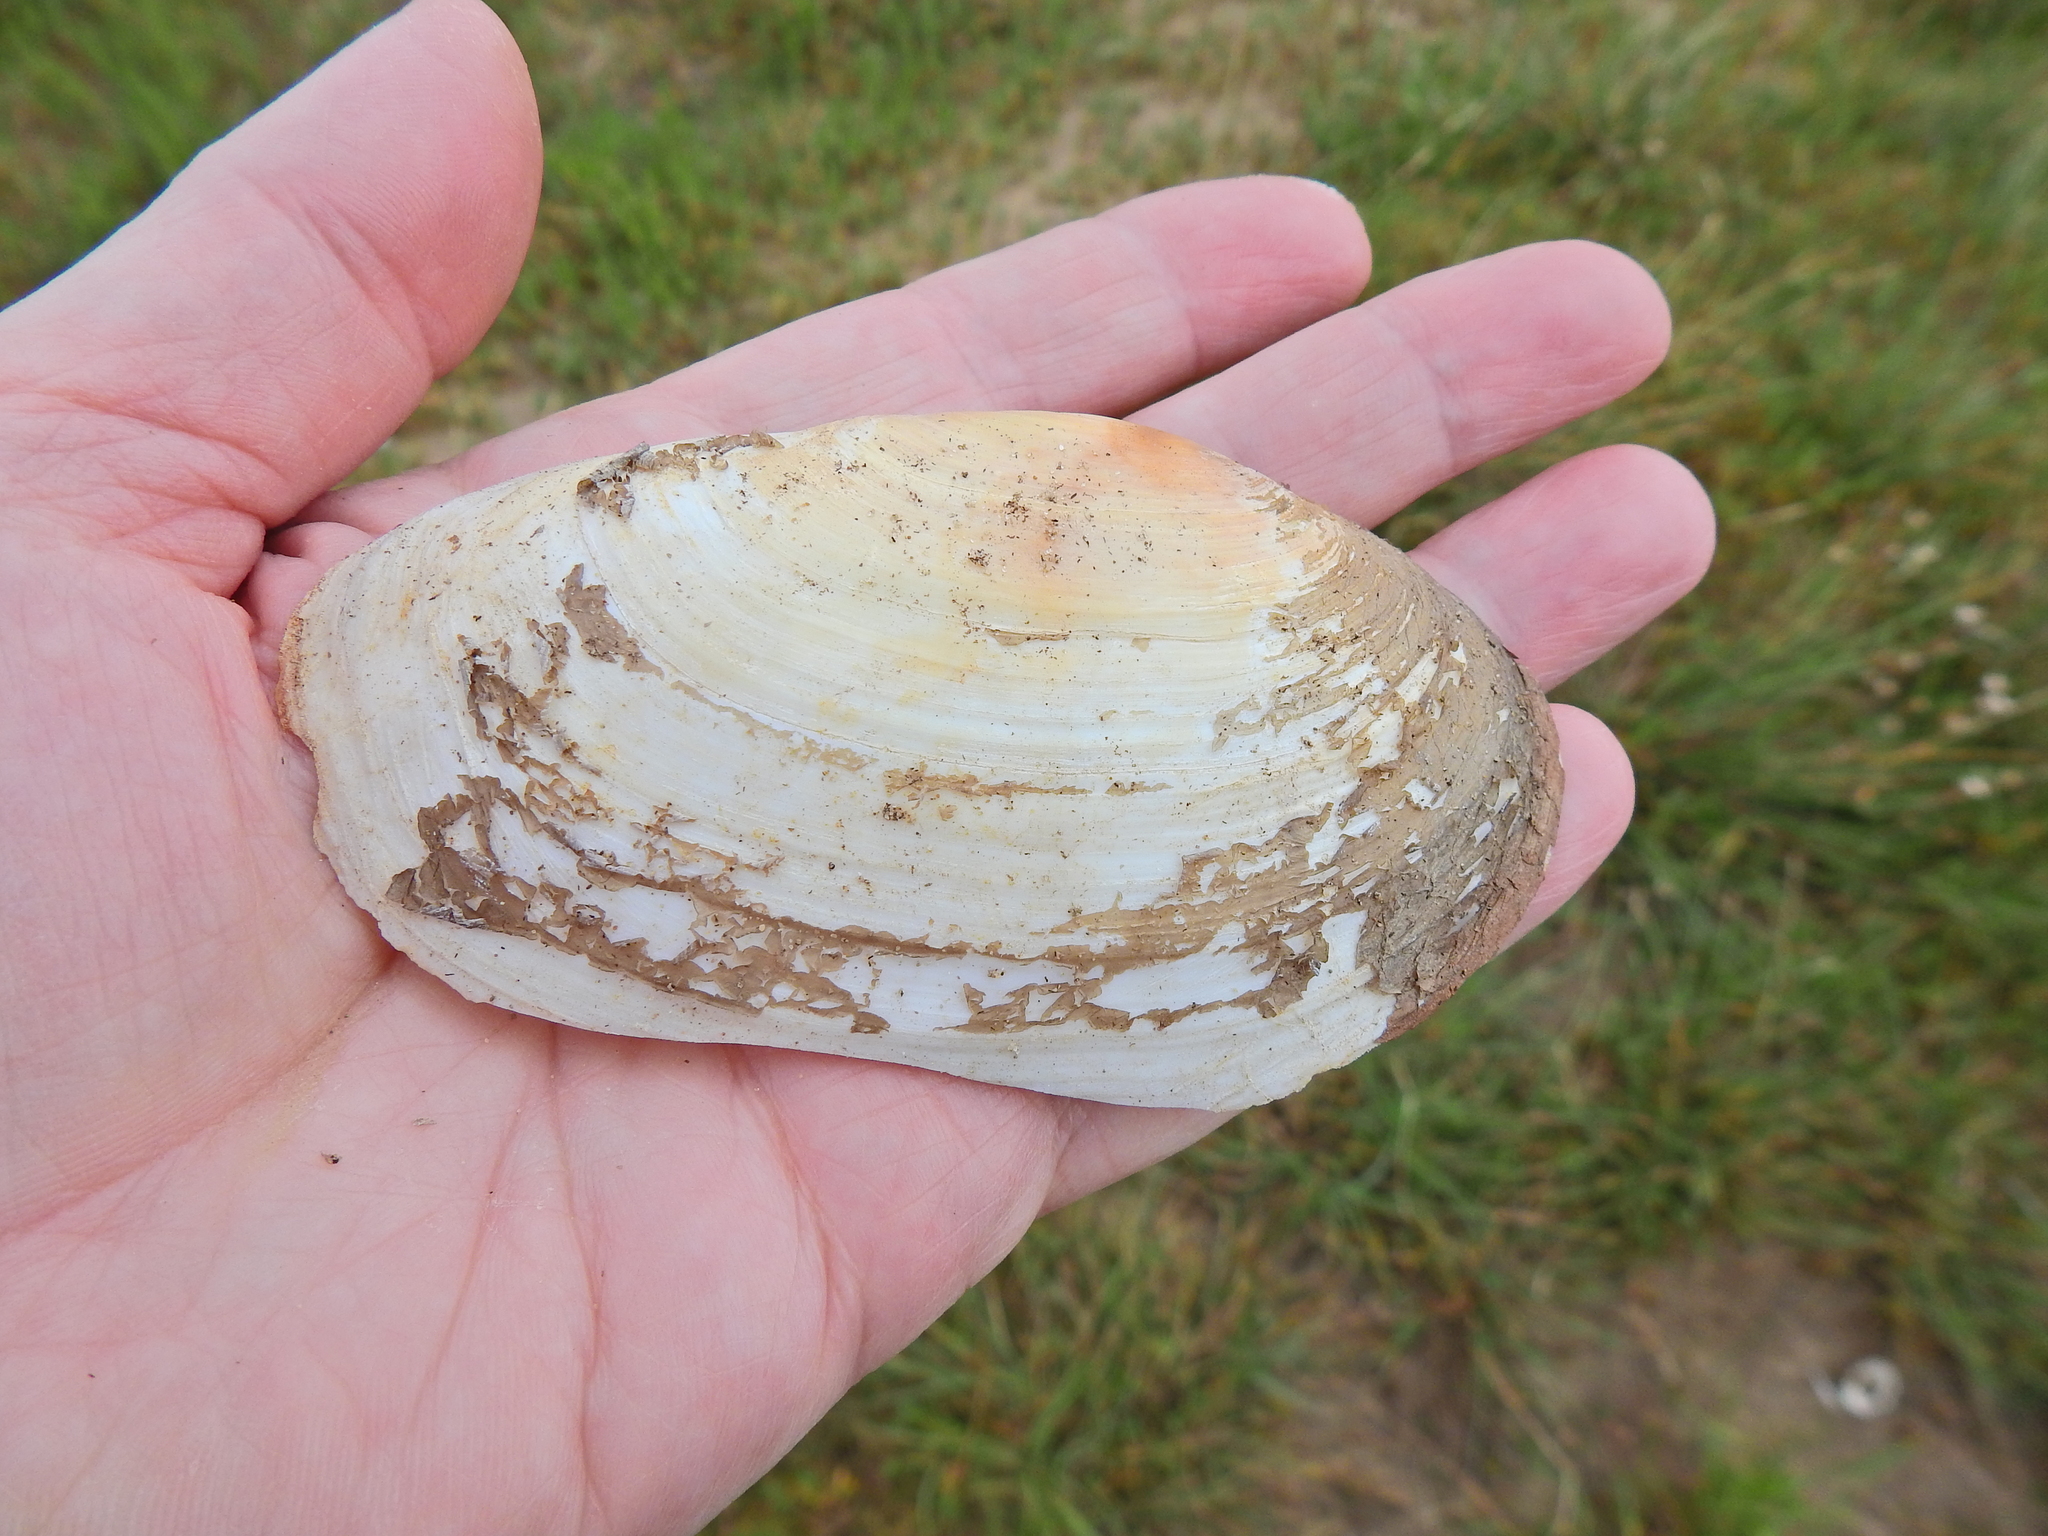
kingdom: Animalia
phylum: Mollusca
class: Bivalvia
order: Venerida
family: Mactridae
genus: Lutraria
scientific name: Lutraria lutraria
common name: Common otter shell
